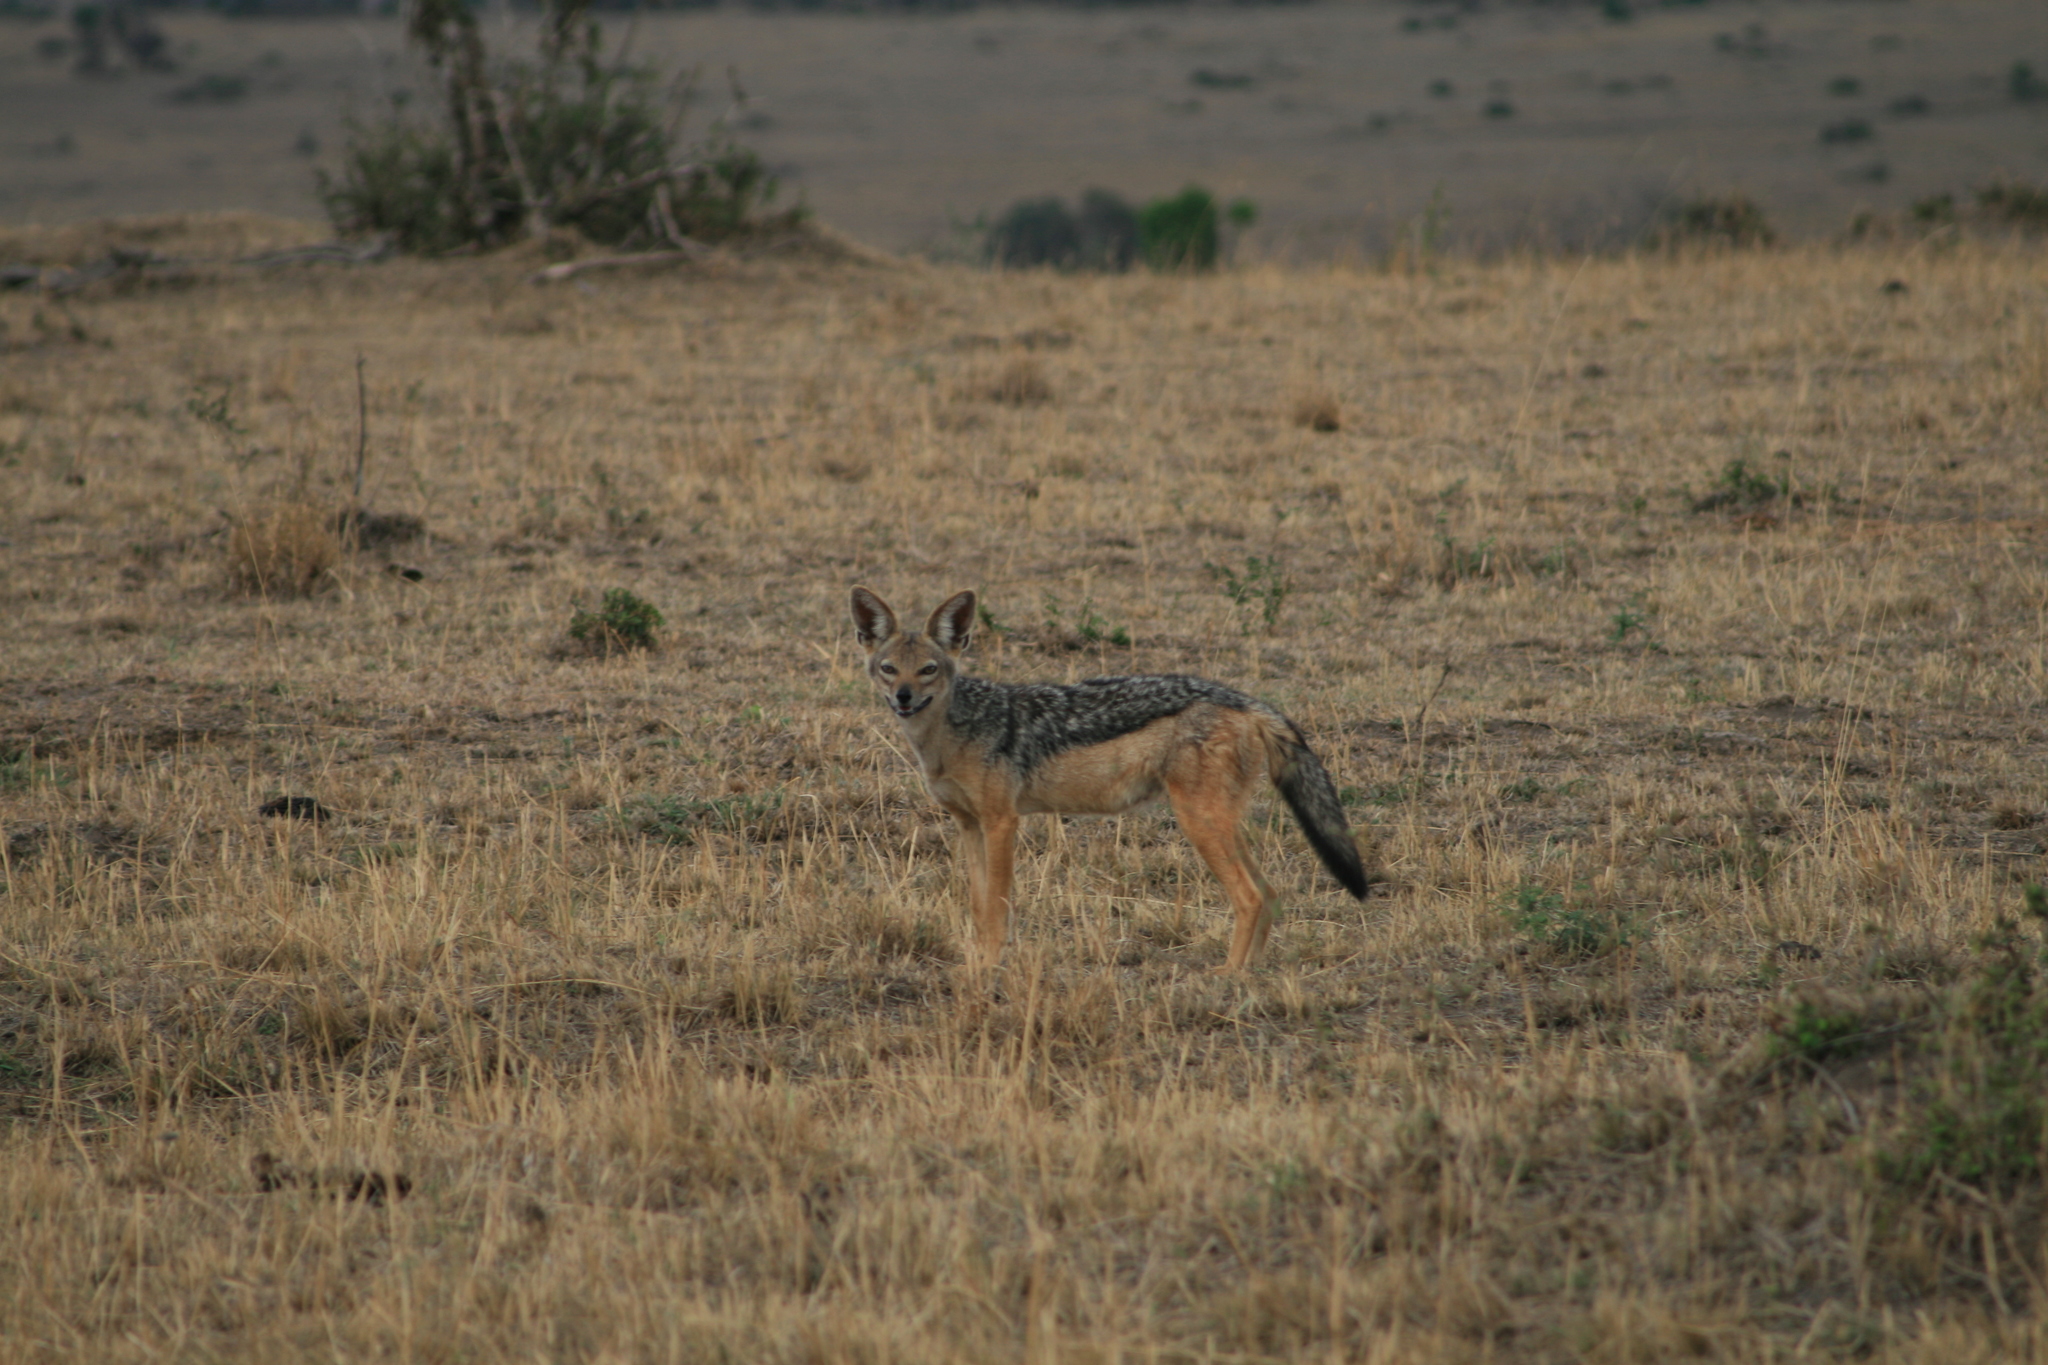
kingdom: Animalia
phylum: Chordata
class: Mammalia
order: Carnivora
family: Canidae
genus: Lupulella
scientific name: Lupulella
